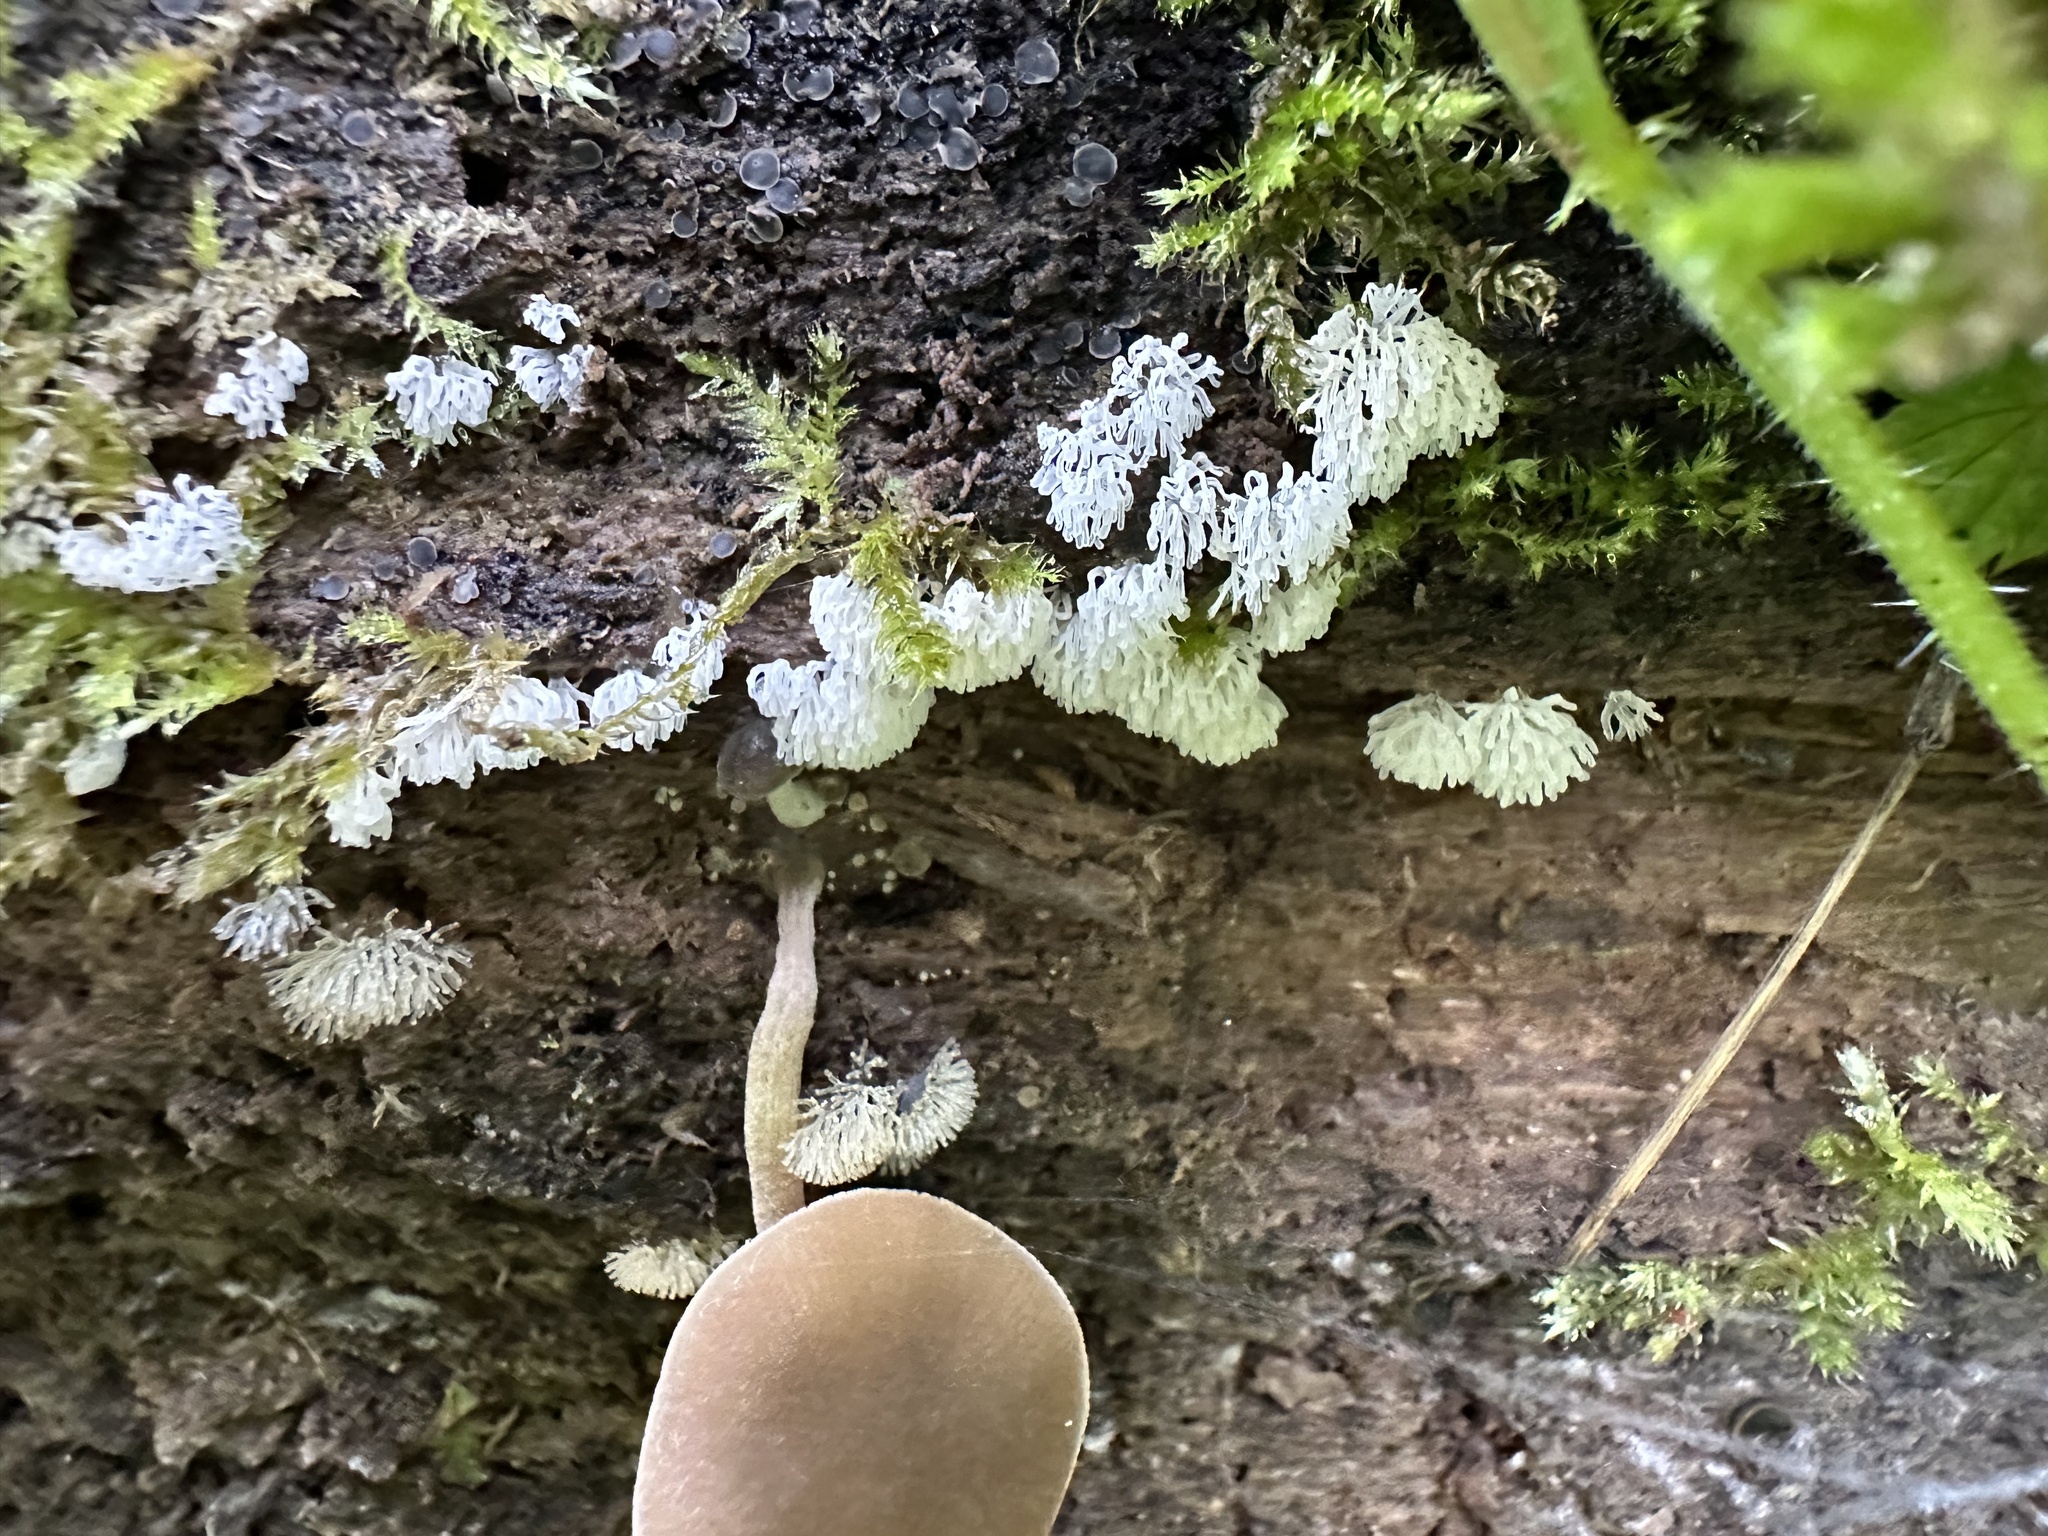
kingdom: Protozoa
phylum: Mycetozoa
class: Protosteliomycetes
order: Ceratiomyxales
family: Ceratiomyxaceae
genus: Ceratiomyxa
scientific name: Ceratiomyxa fruticulosa
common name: Honeycomb coral slime mold
